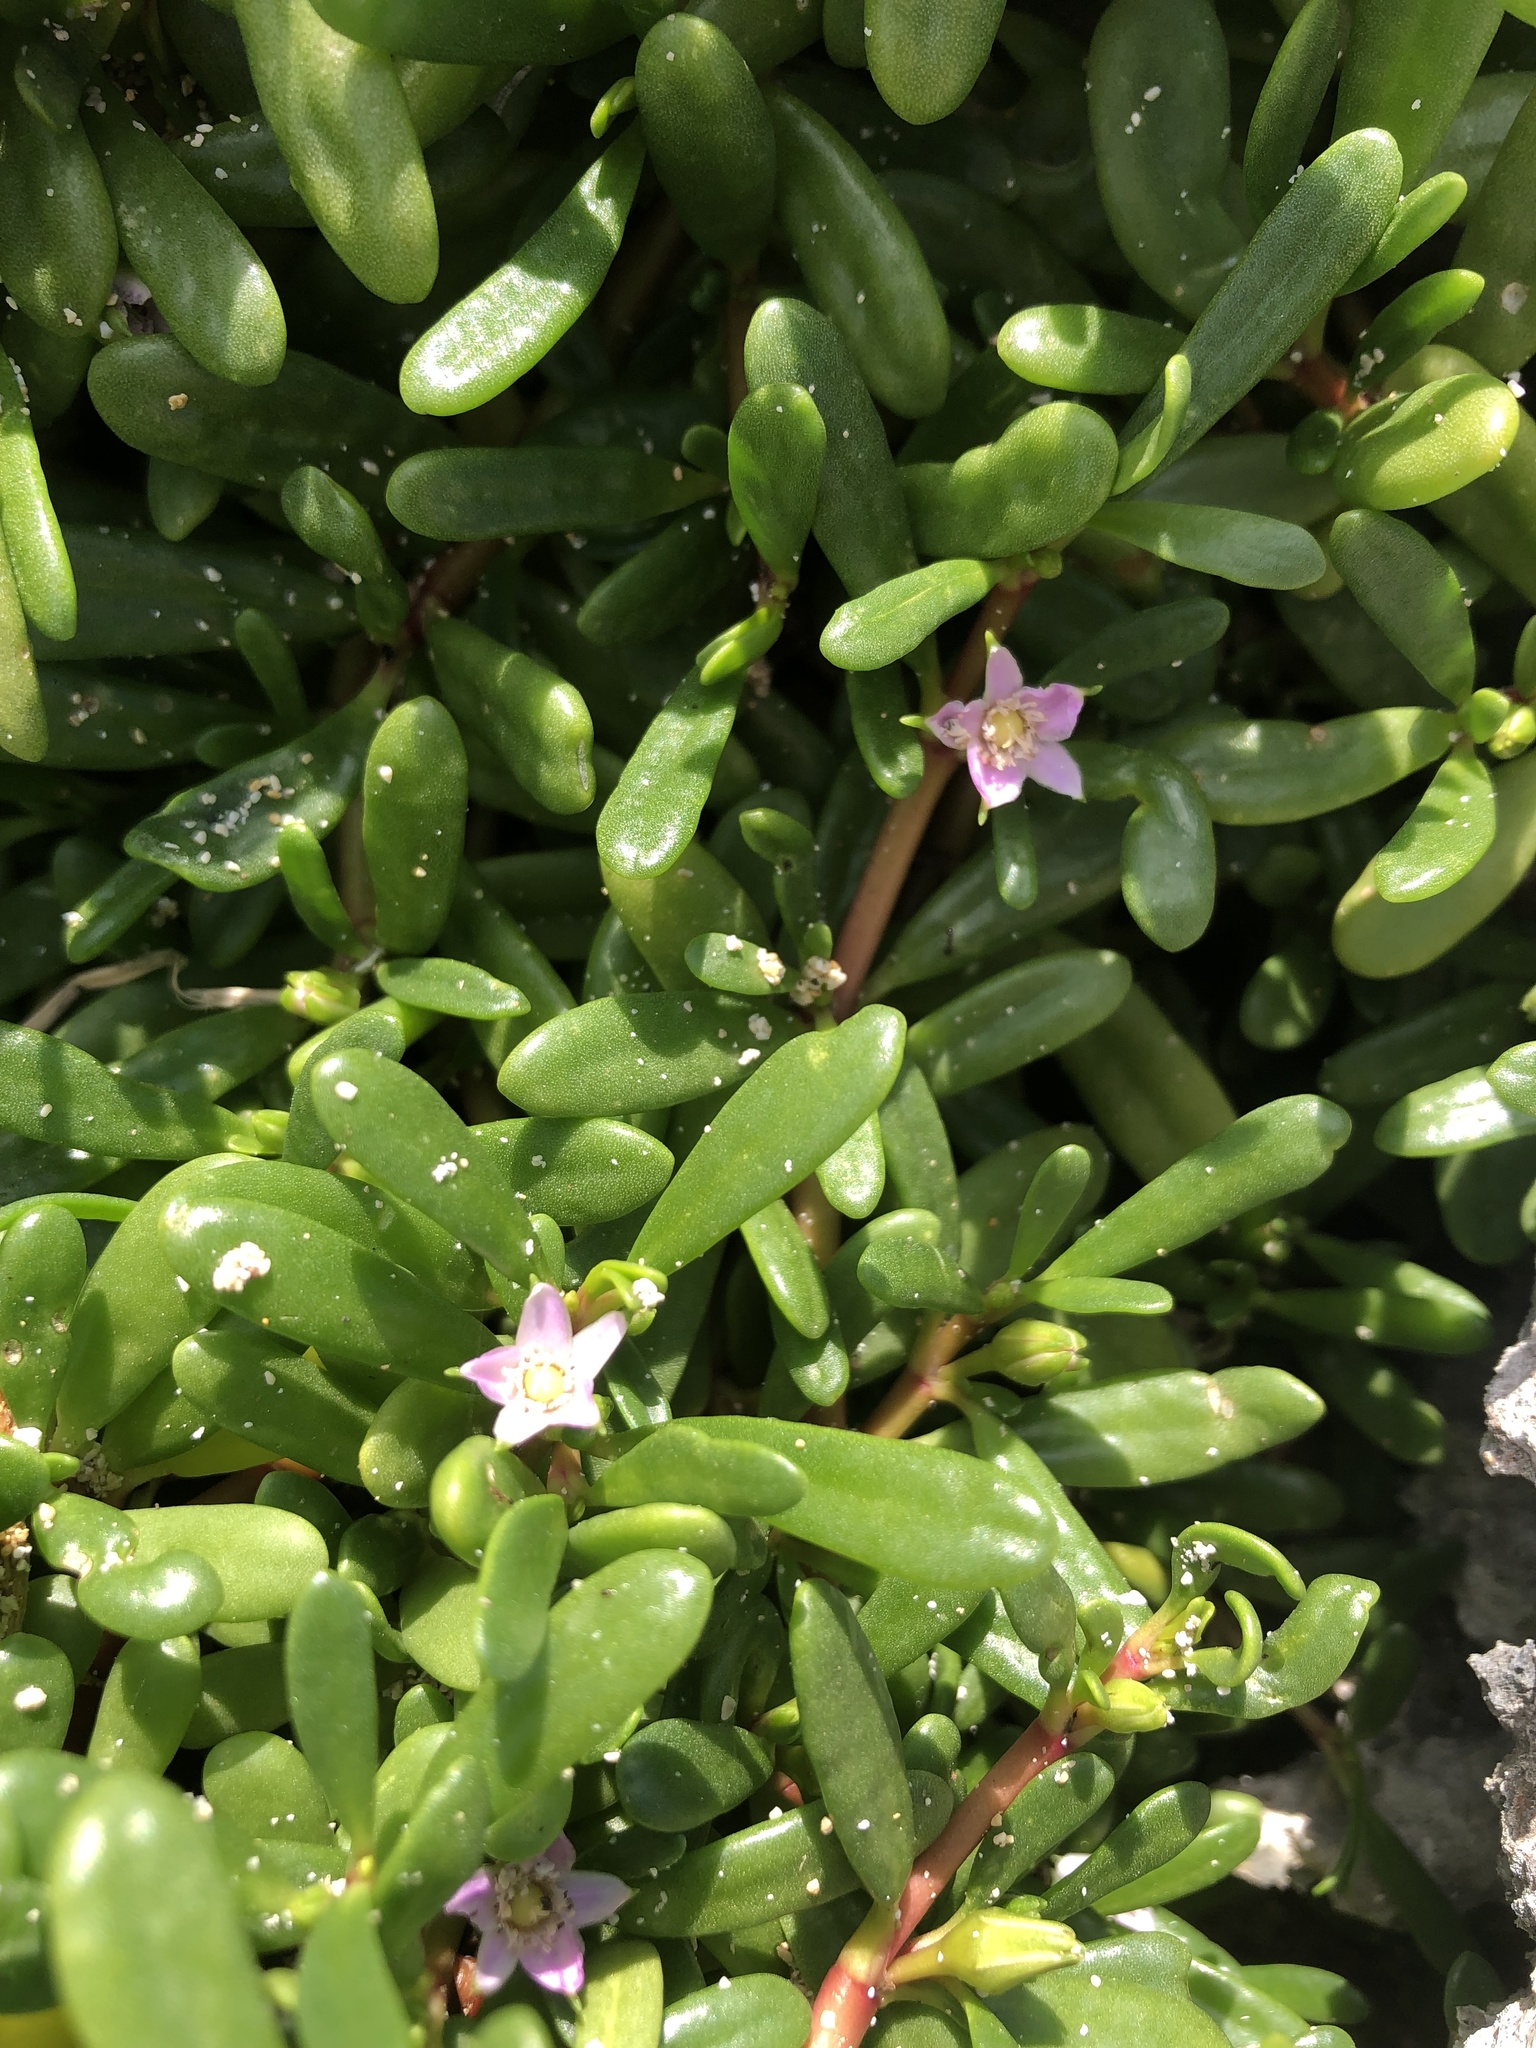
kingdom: Plantae
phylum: Tracheophyta
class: Magnoliopsida
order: Caryophyllales
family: Aizoaceae
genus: Sesuvium
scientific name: Sesuvium portulacastrum
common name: Sea-purslane
